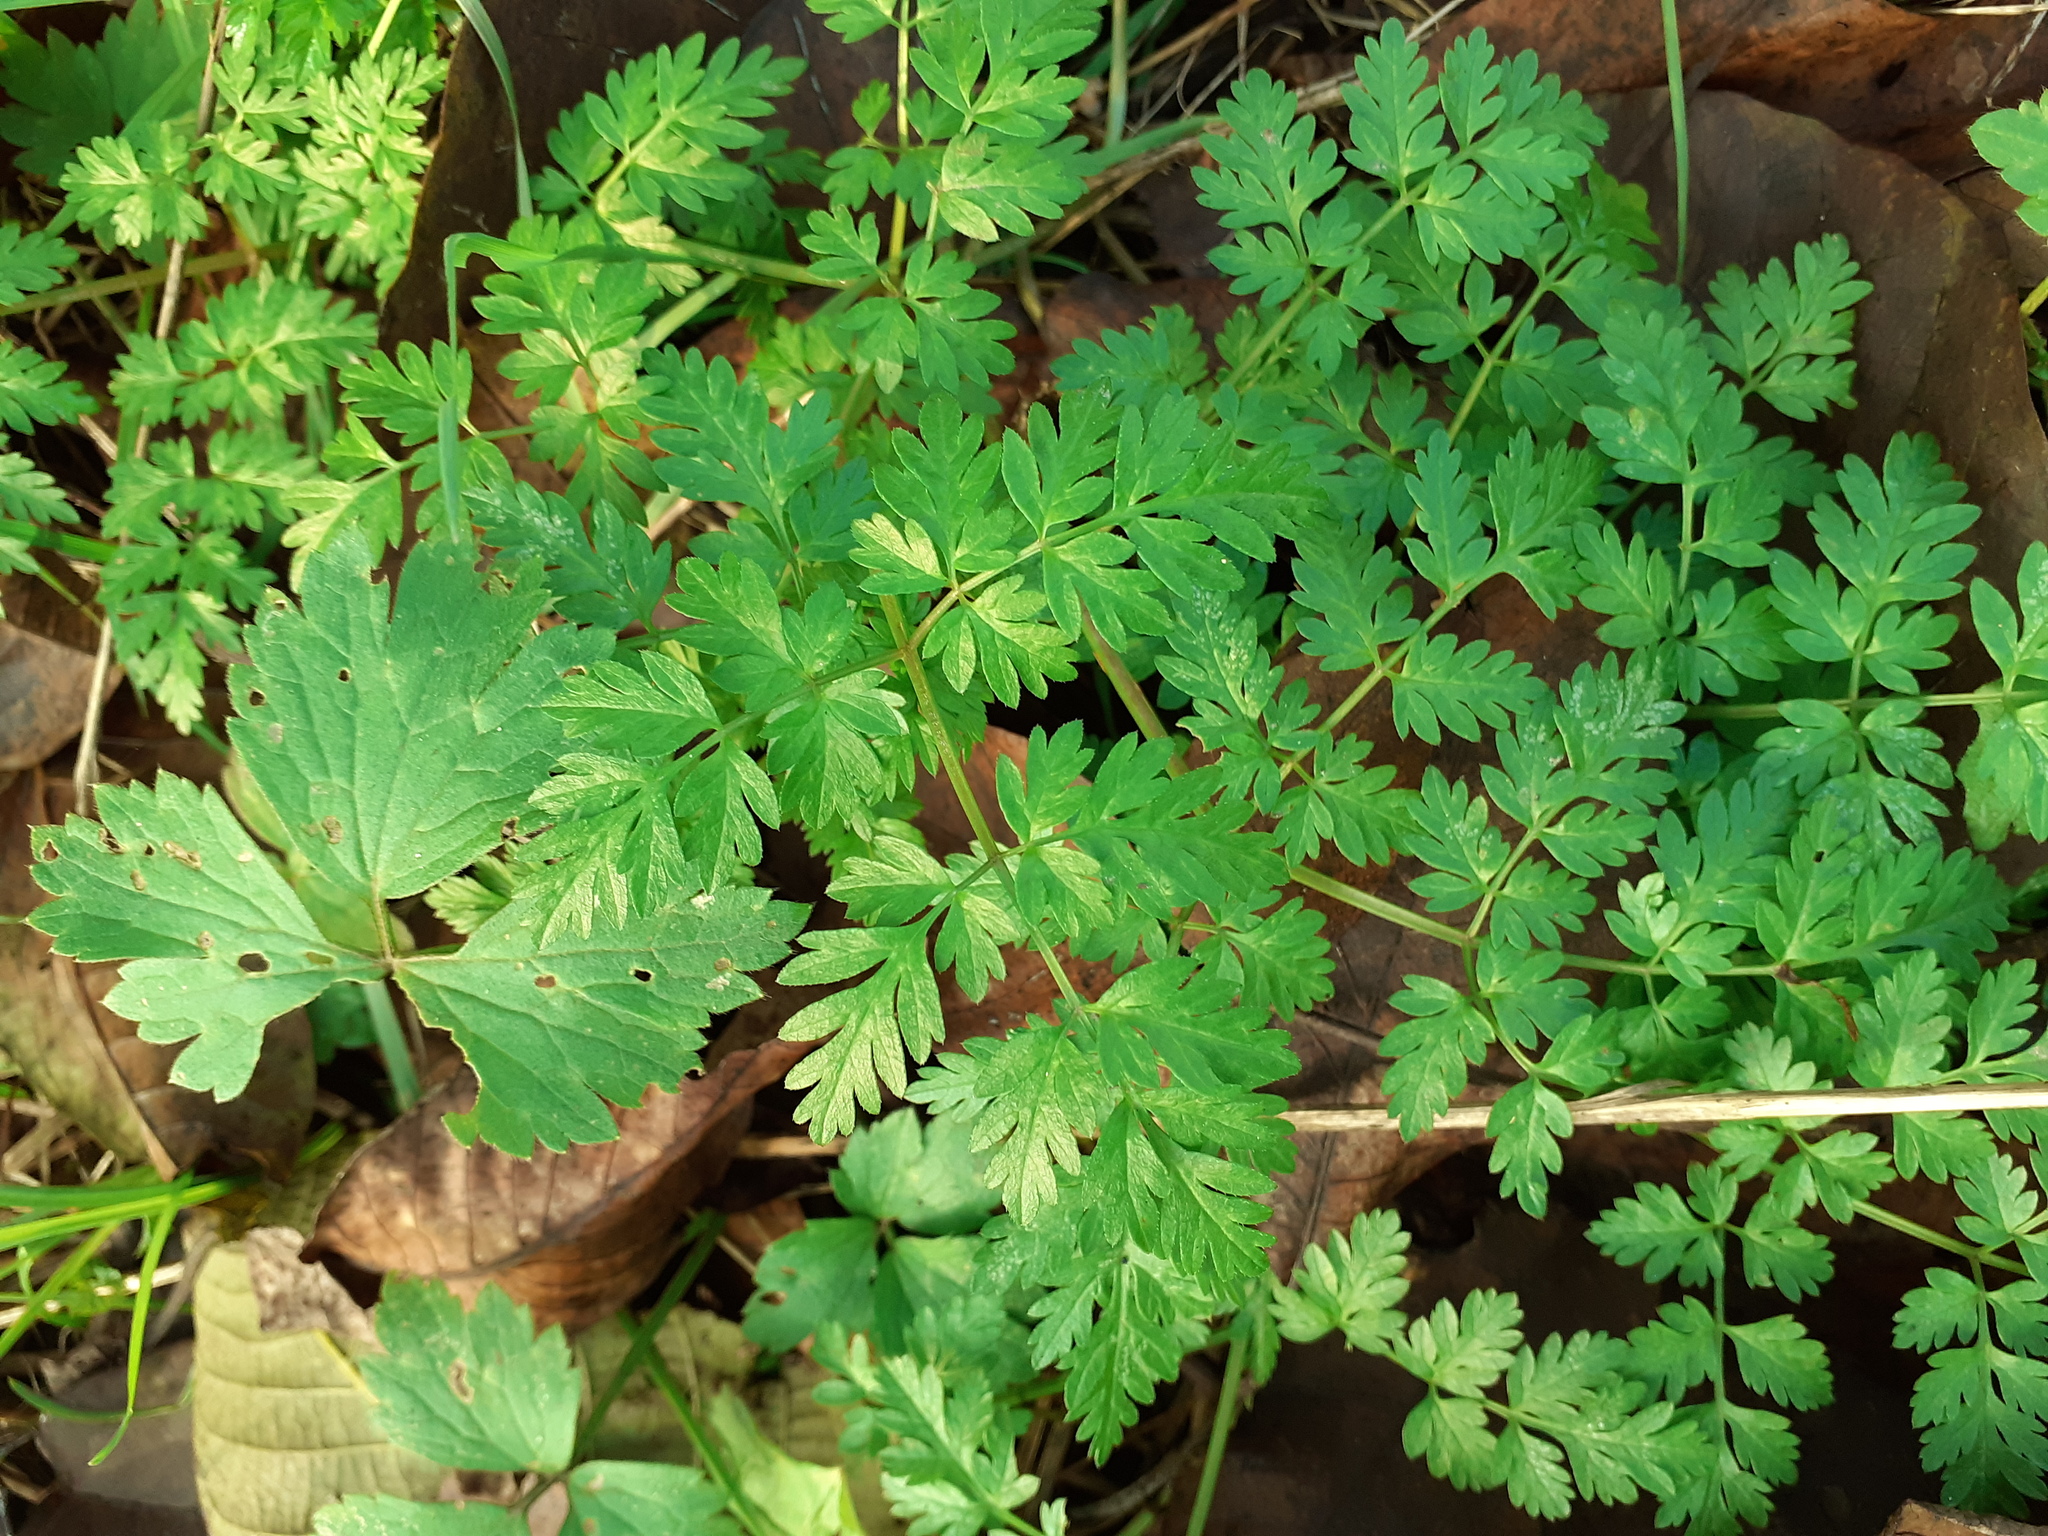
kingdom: Plantae
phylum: Tracheophyta
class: Magnoliopsida
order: Apiales
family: Apiaceae
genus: Anthriscus
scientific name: Anthriscus sylvestris
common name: Cow parsley
